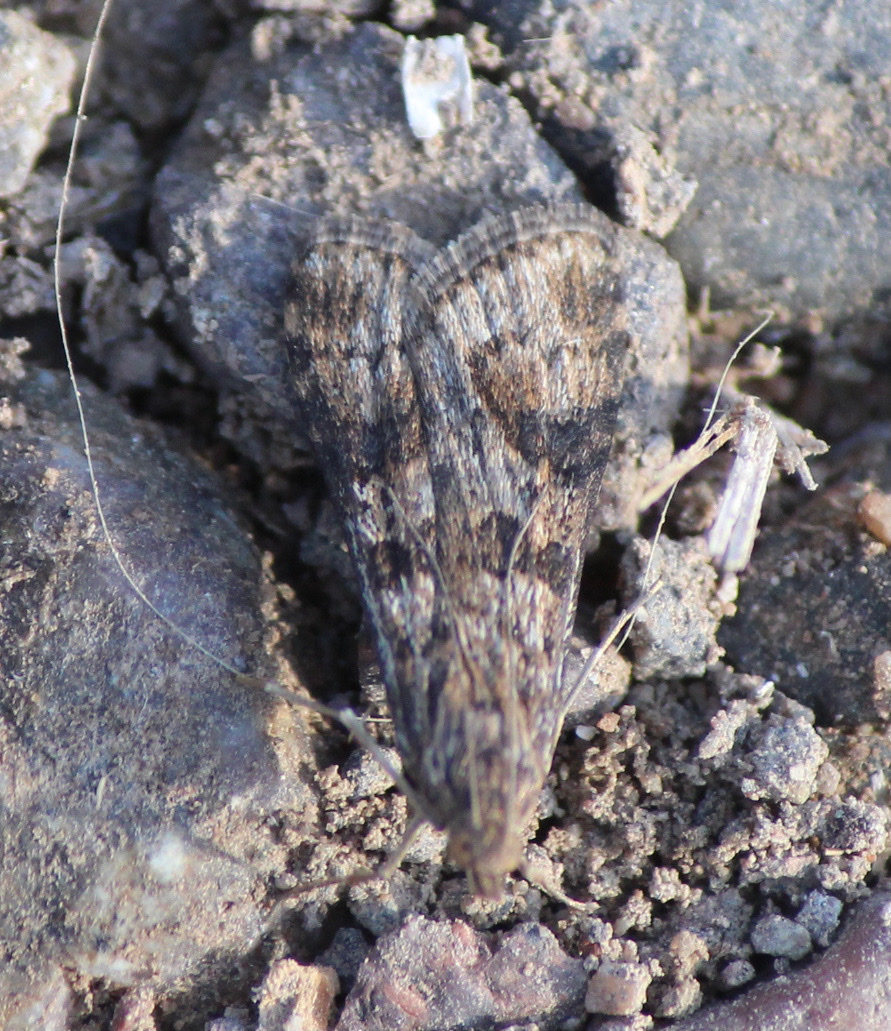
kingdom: Animalia
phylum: Arthropoda
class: Insecta
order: Lepidoptera
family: Crambidae
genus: Nomophila
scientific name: Nomophila distinctalis
